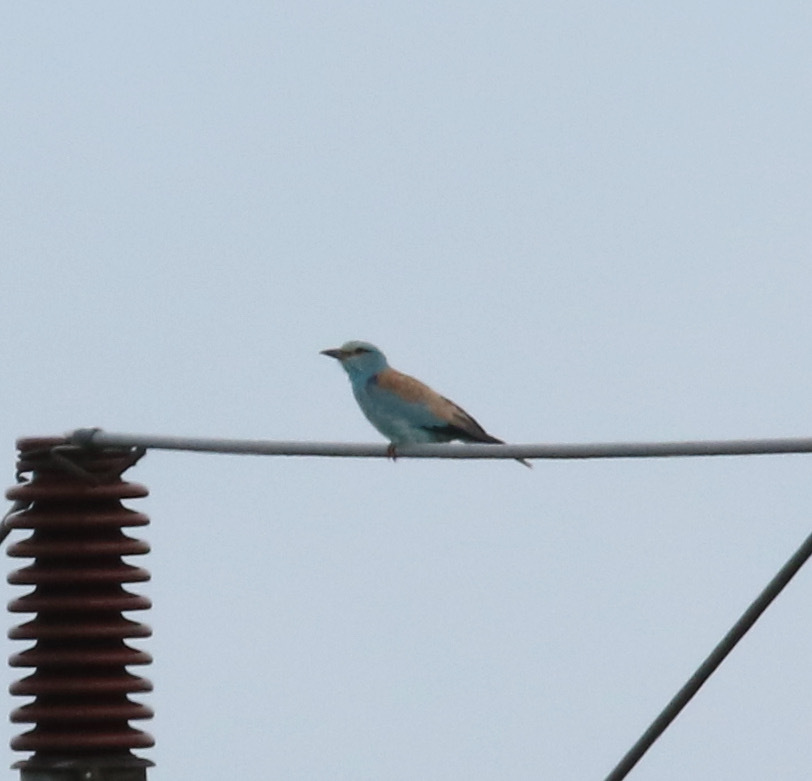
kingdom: Animalia
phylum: Chordata
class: Aves
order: Coraciiformes
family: Coraciidae
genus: Coracias
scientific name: Coracias garrulus
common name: European roller
